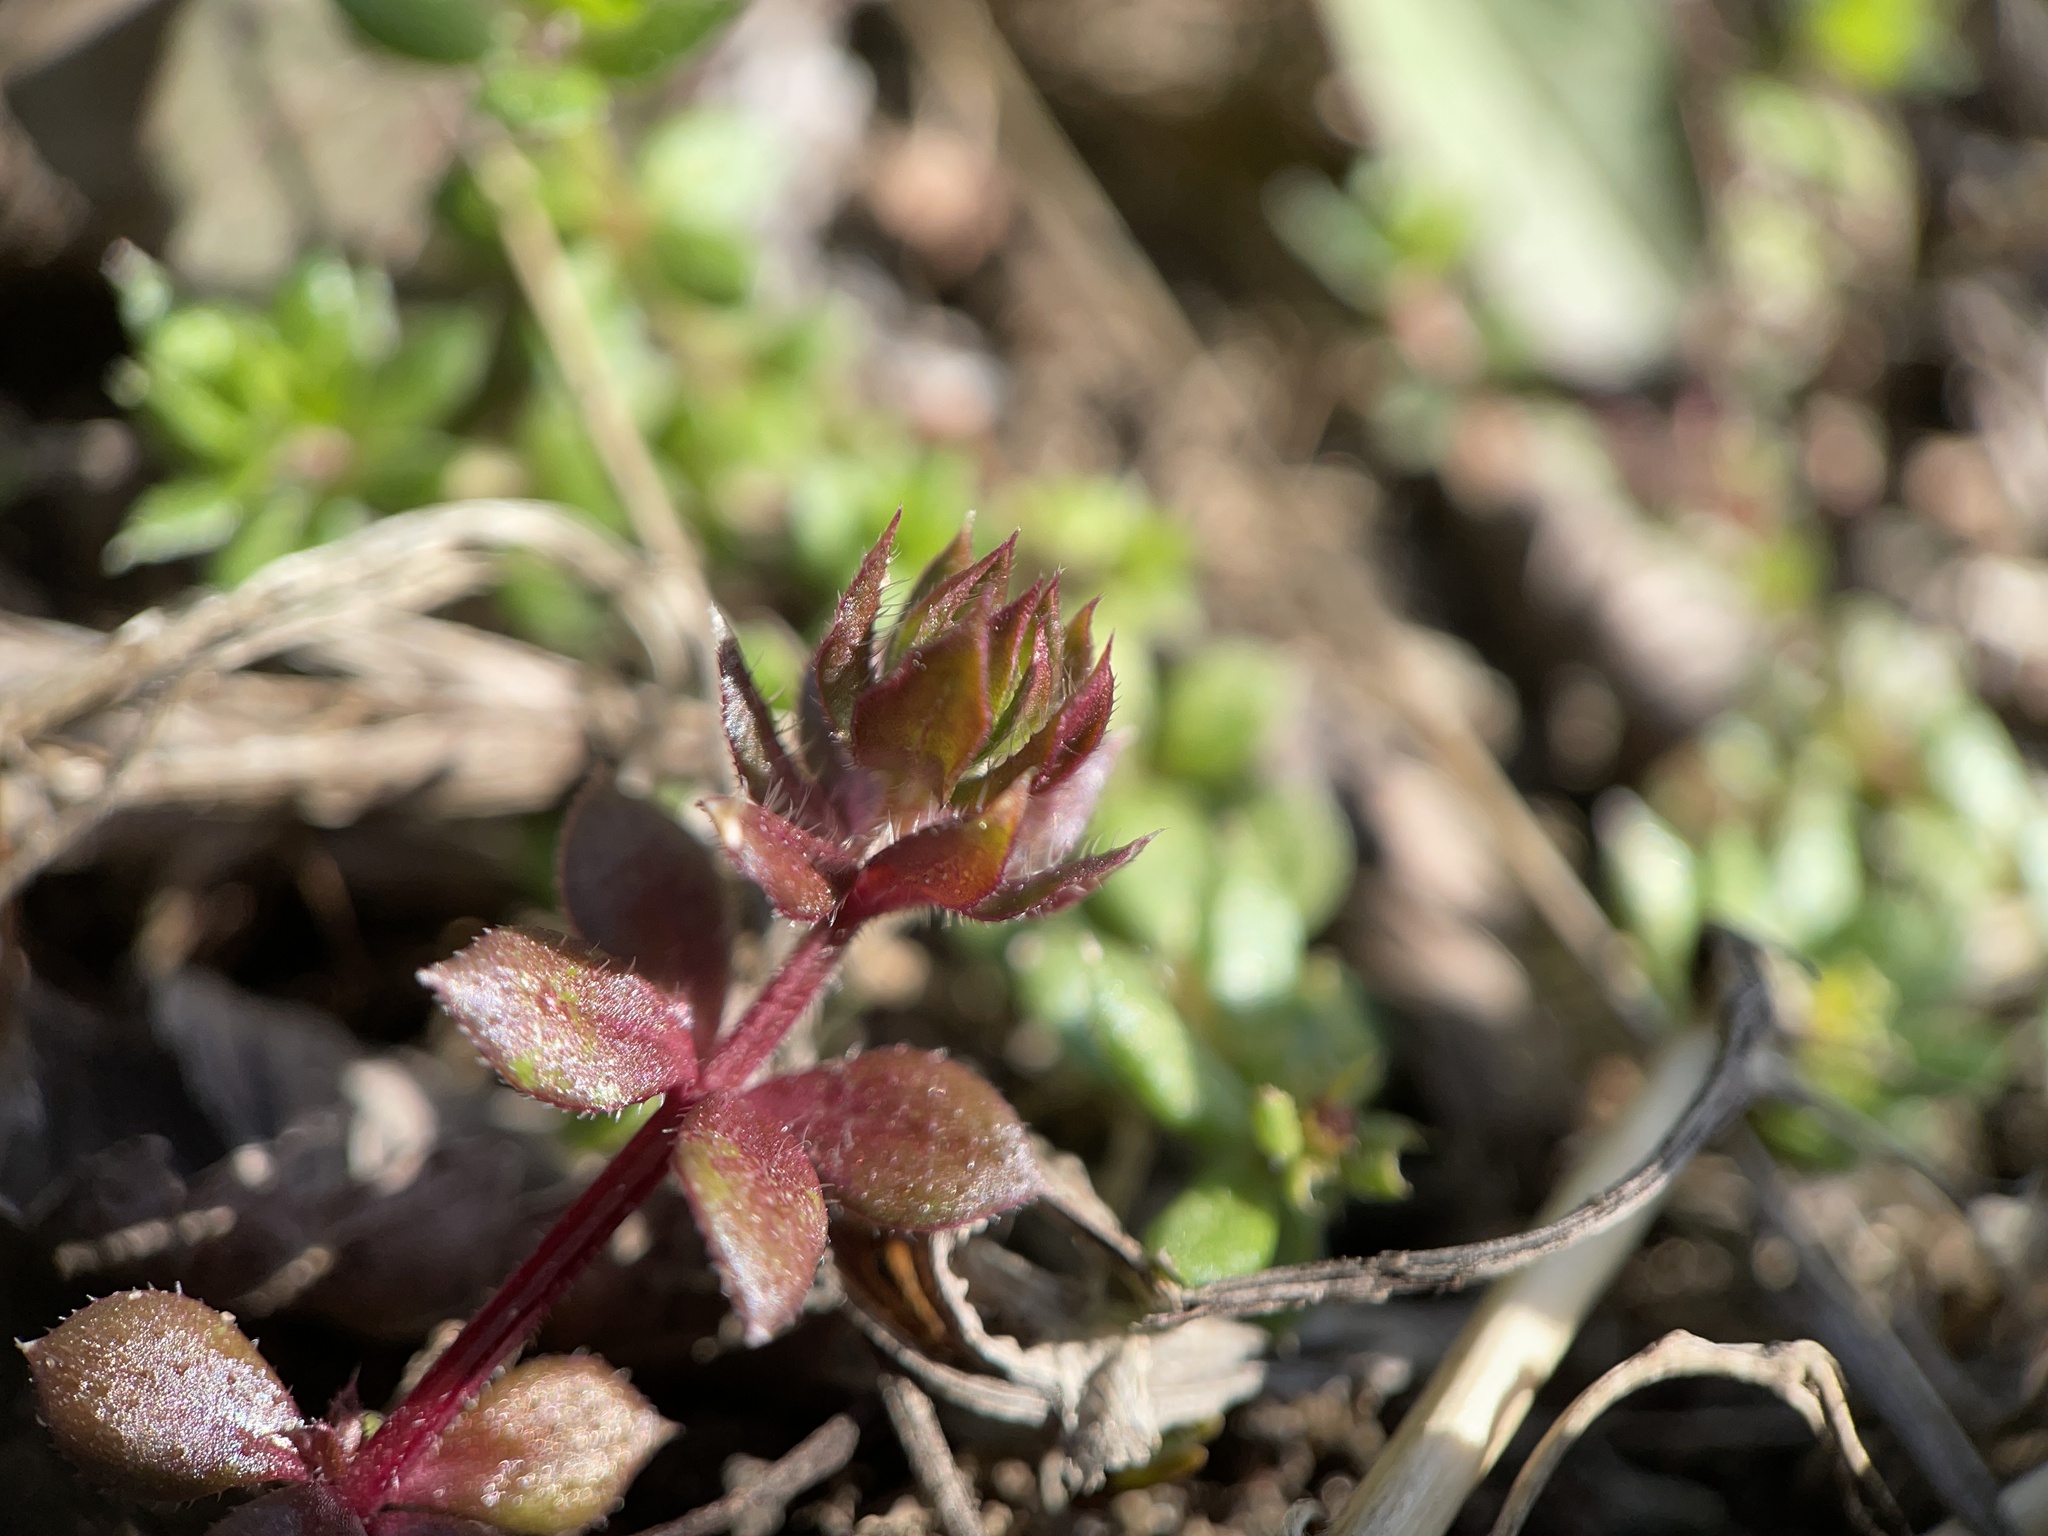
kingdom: Plantae
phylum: Tracheophyta
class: Magnoliopsida
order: Gentianales
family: Rubiaceae
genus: Sherardia
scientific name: Sherardia arvensis
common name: Field madder
